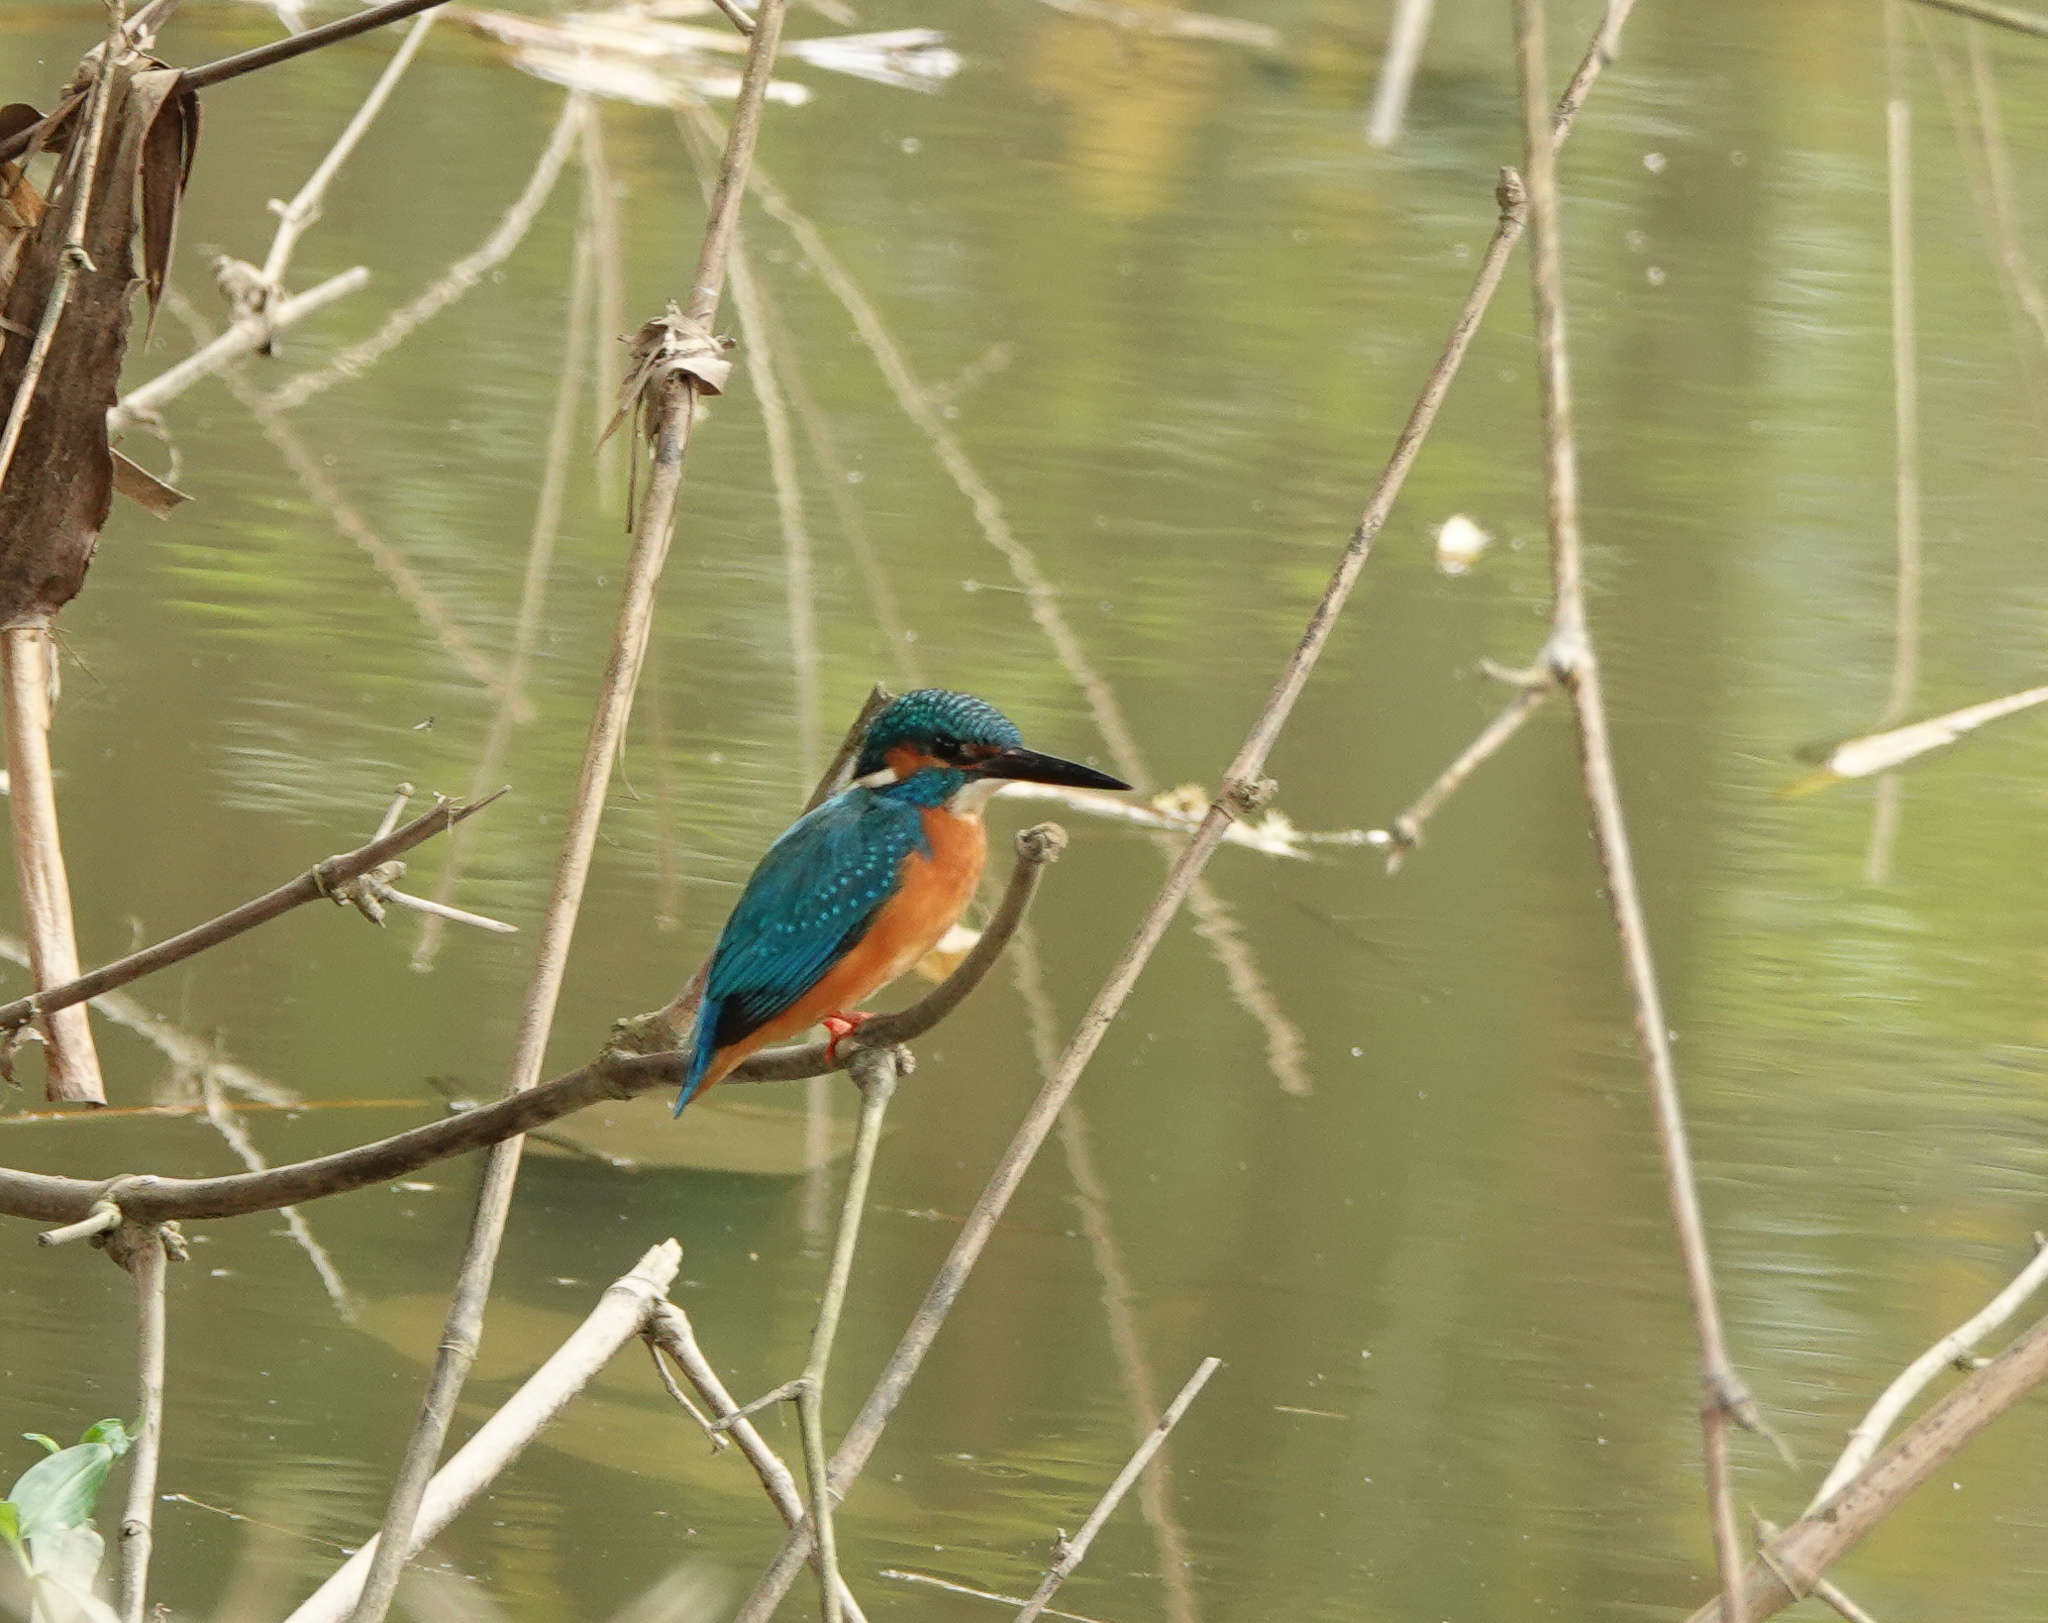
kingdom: Animalia
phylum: Chordata
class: Aves
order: Coraciiformes
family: Alcedinidae
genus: Alcedo
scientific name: Alcedo atthis
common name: Common kingfisher
